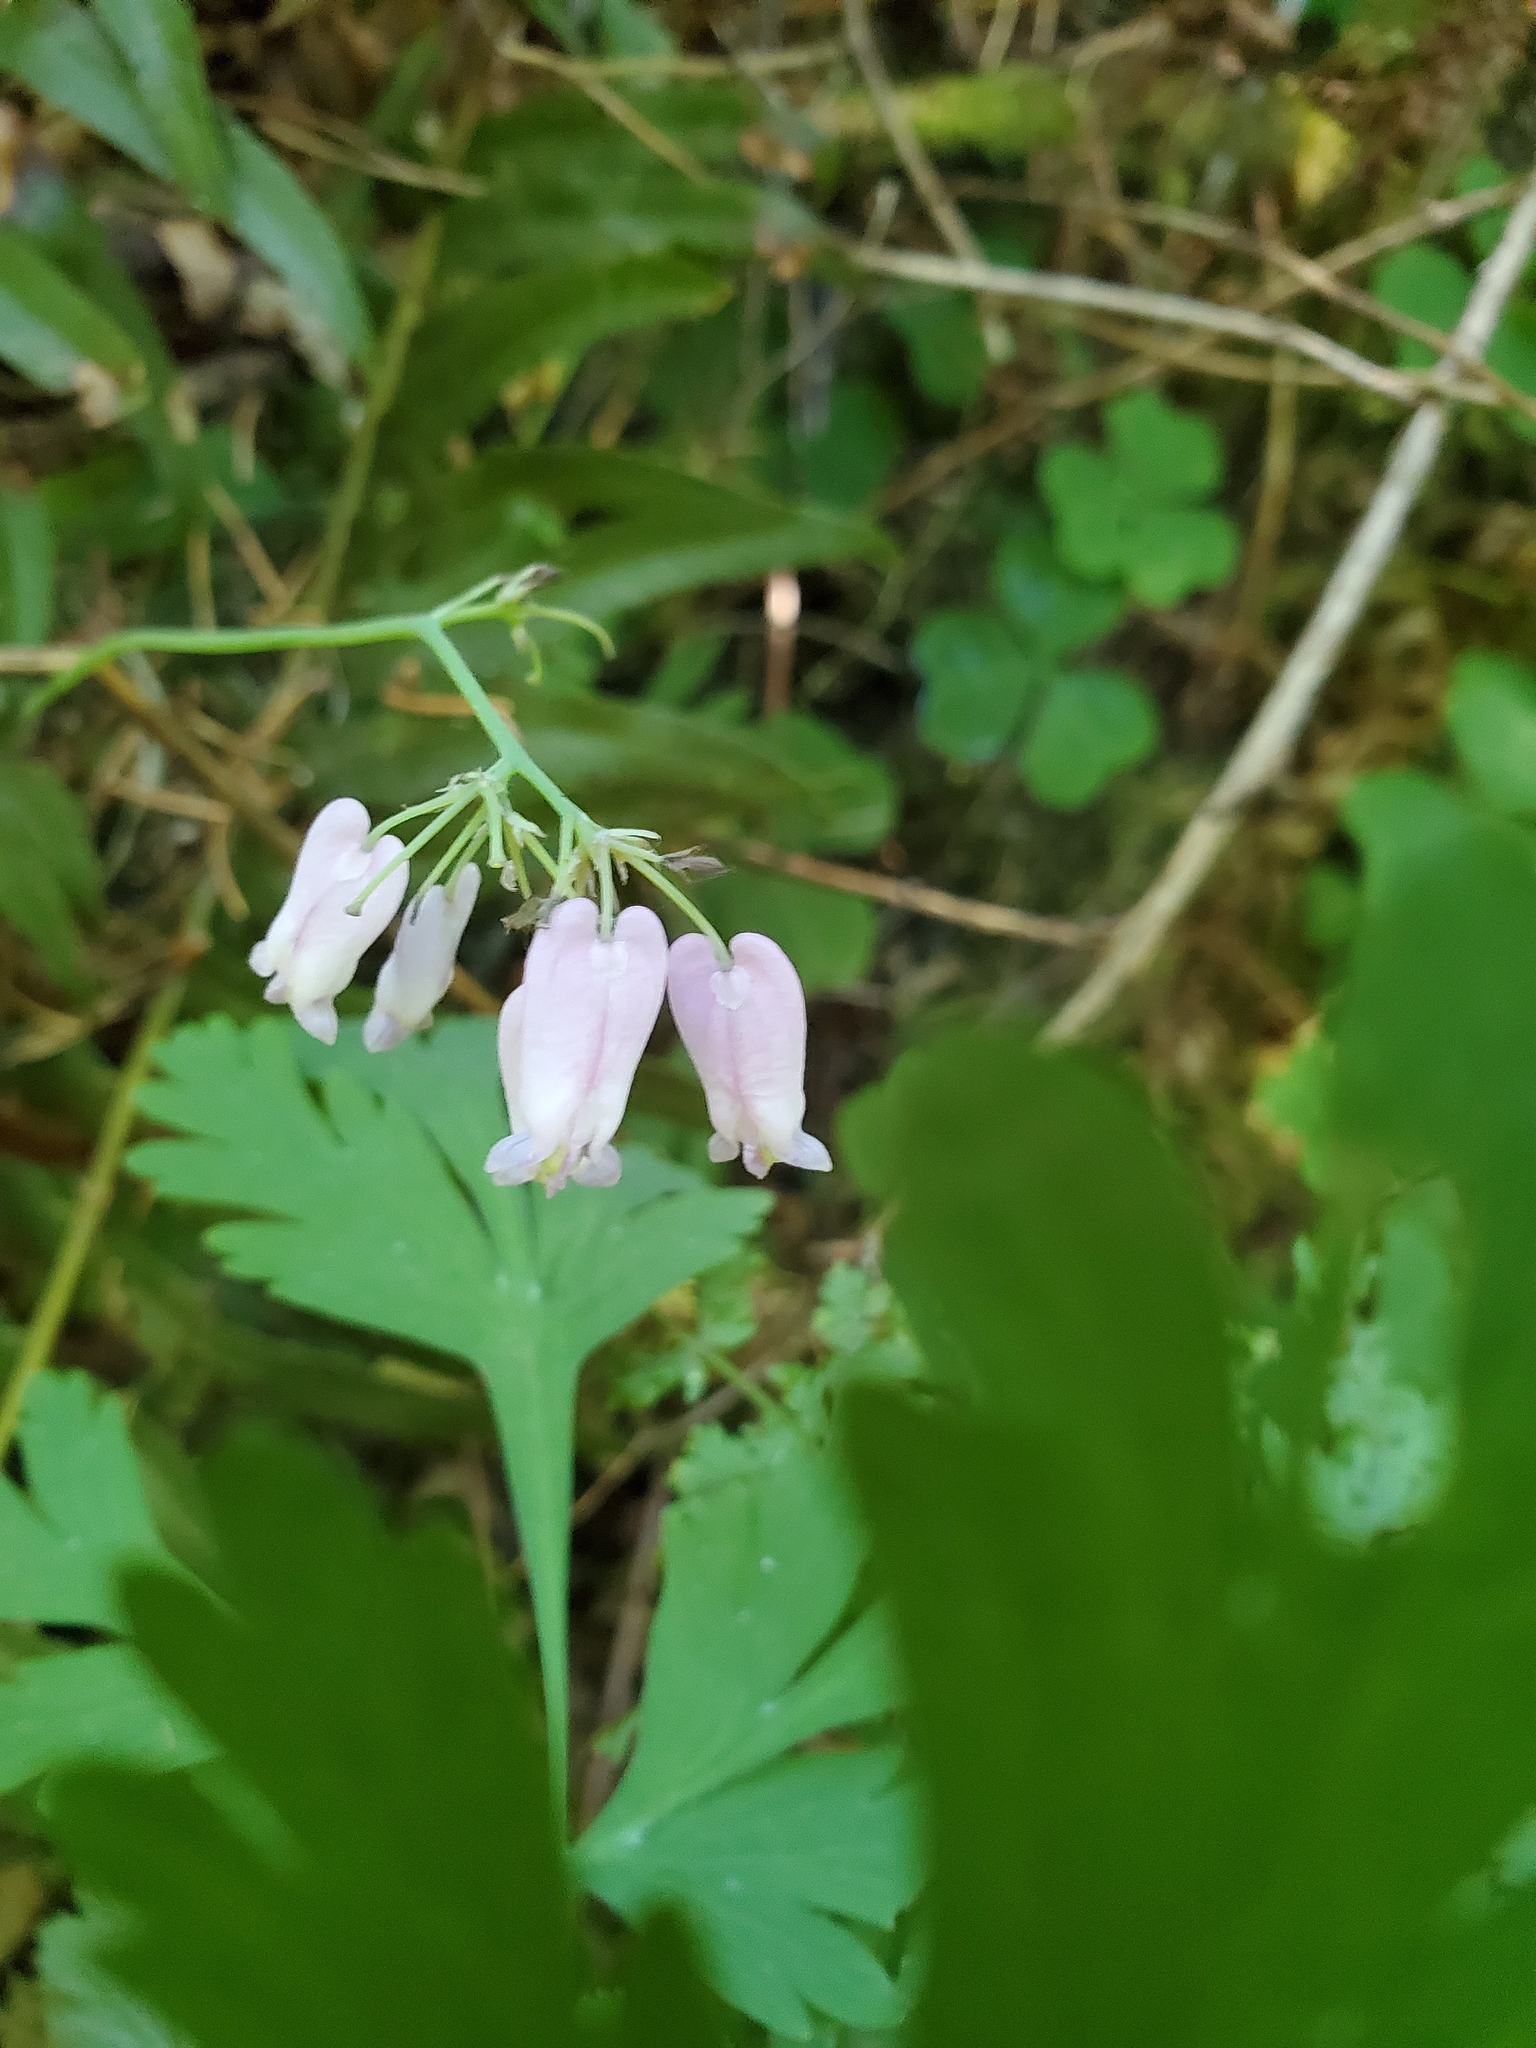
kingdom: Plantae
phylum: Tracheophyta
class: Magnoliopsida
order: Ranunculales
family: Papaveraceae
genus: Dicentra
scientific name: Dicentra formosa
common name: Bleeding-heart
